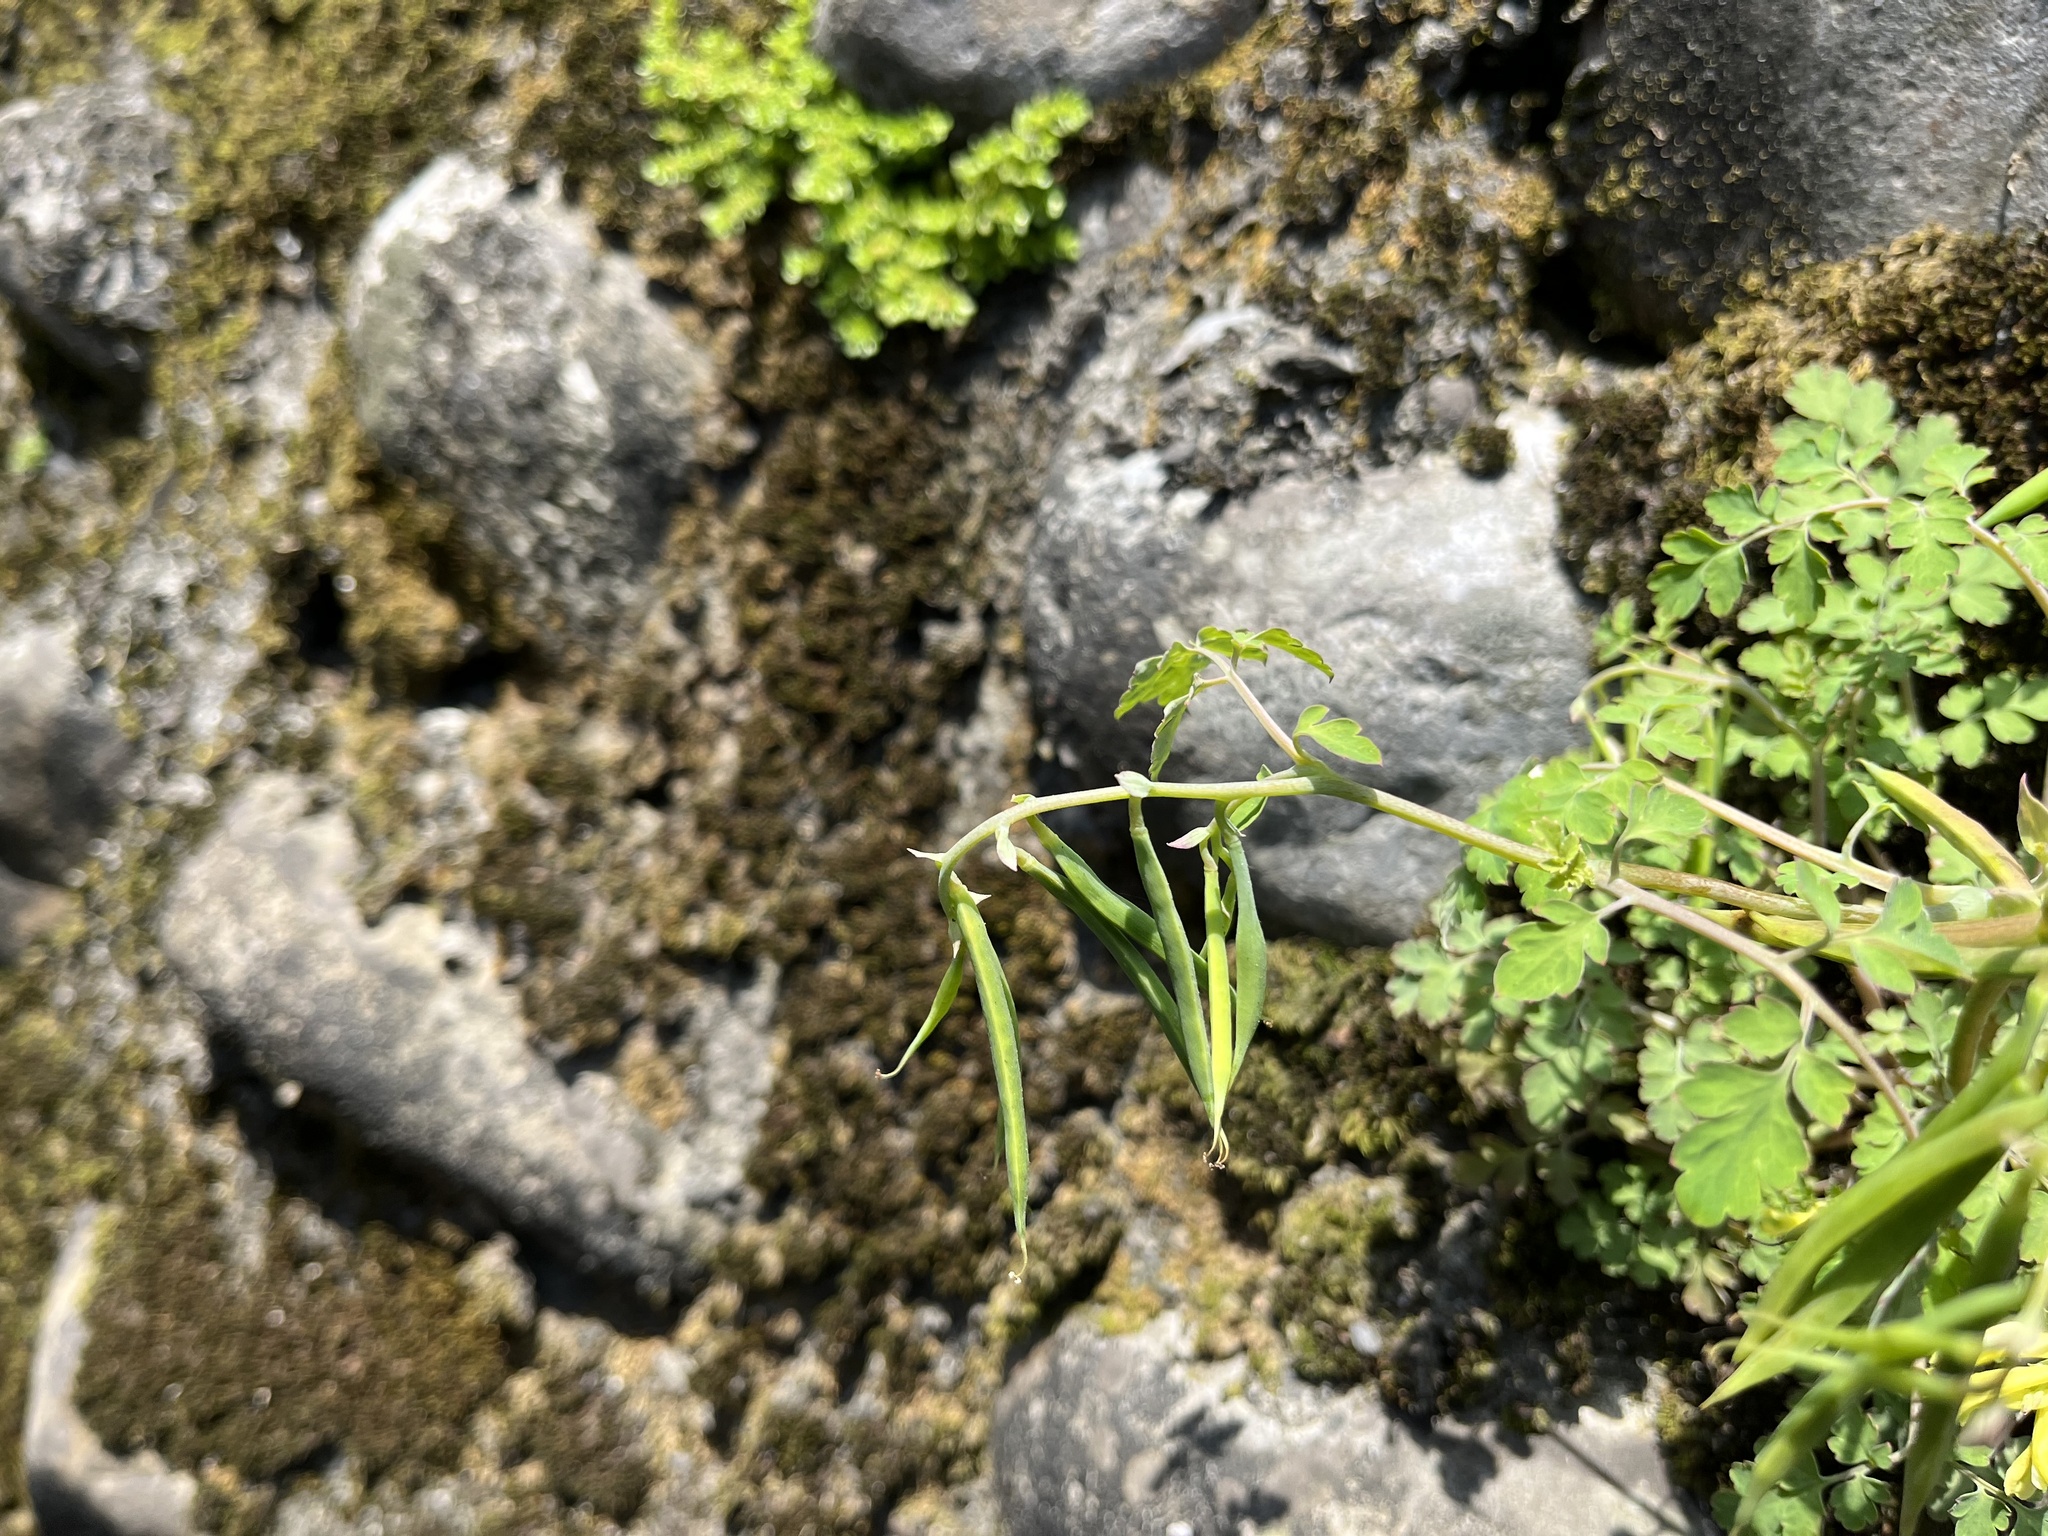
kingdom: Plantae
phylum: Tracheophyta
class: Magnoliopsida
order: Ranunculales
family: Papaveraceae
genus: Corydalis
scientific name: Corydalis balansae
